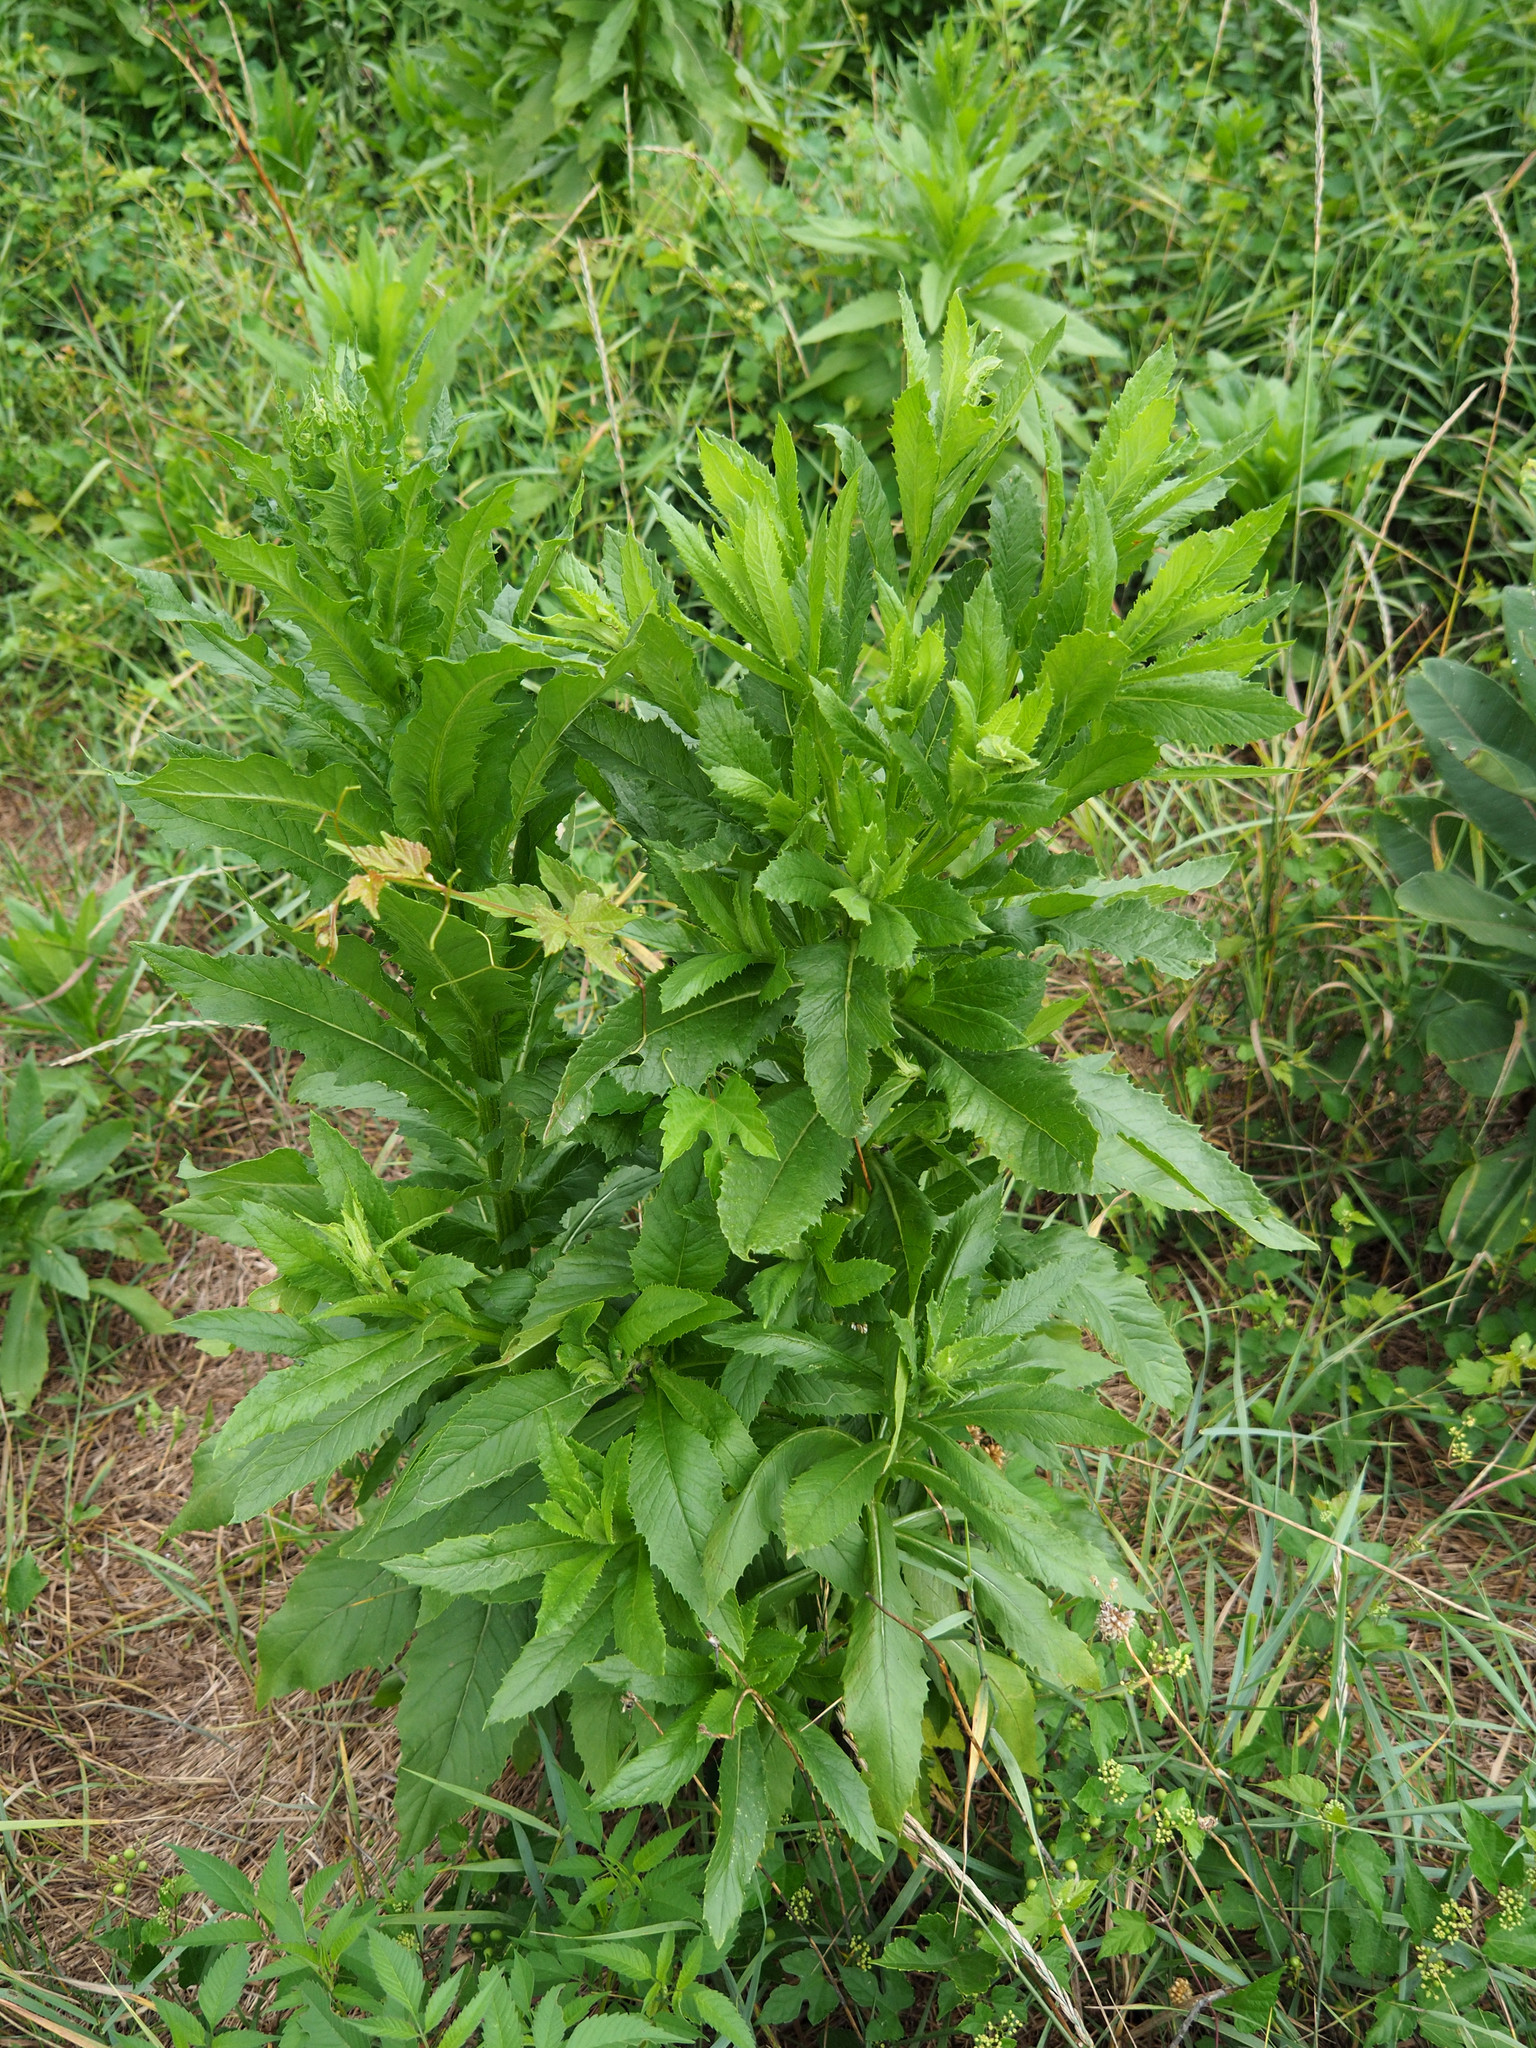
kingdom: Plantae
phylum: Tracheophyta
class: Magnoliopsida
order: Asterales
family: Asteraceae
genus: Erechtites
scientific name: Erechtites hieraciifolius
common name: American burnweed
